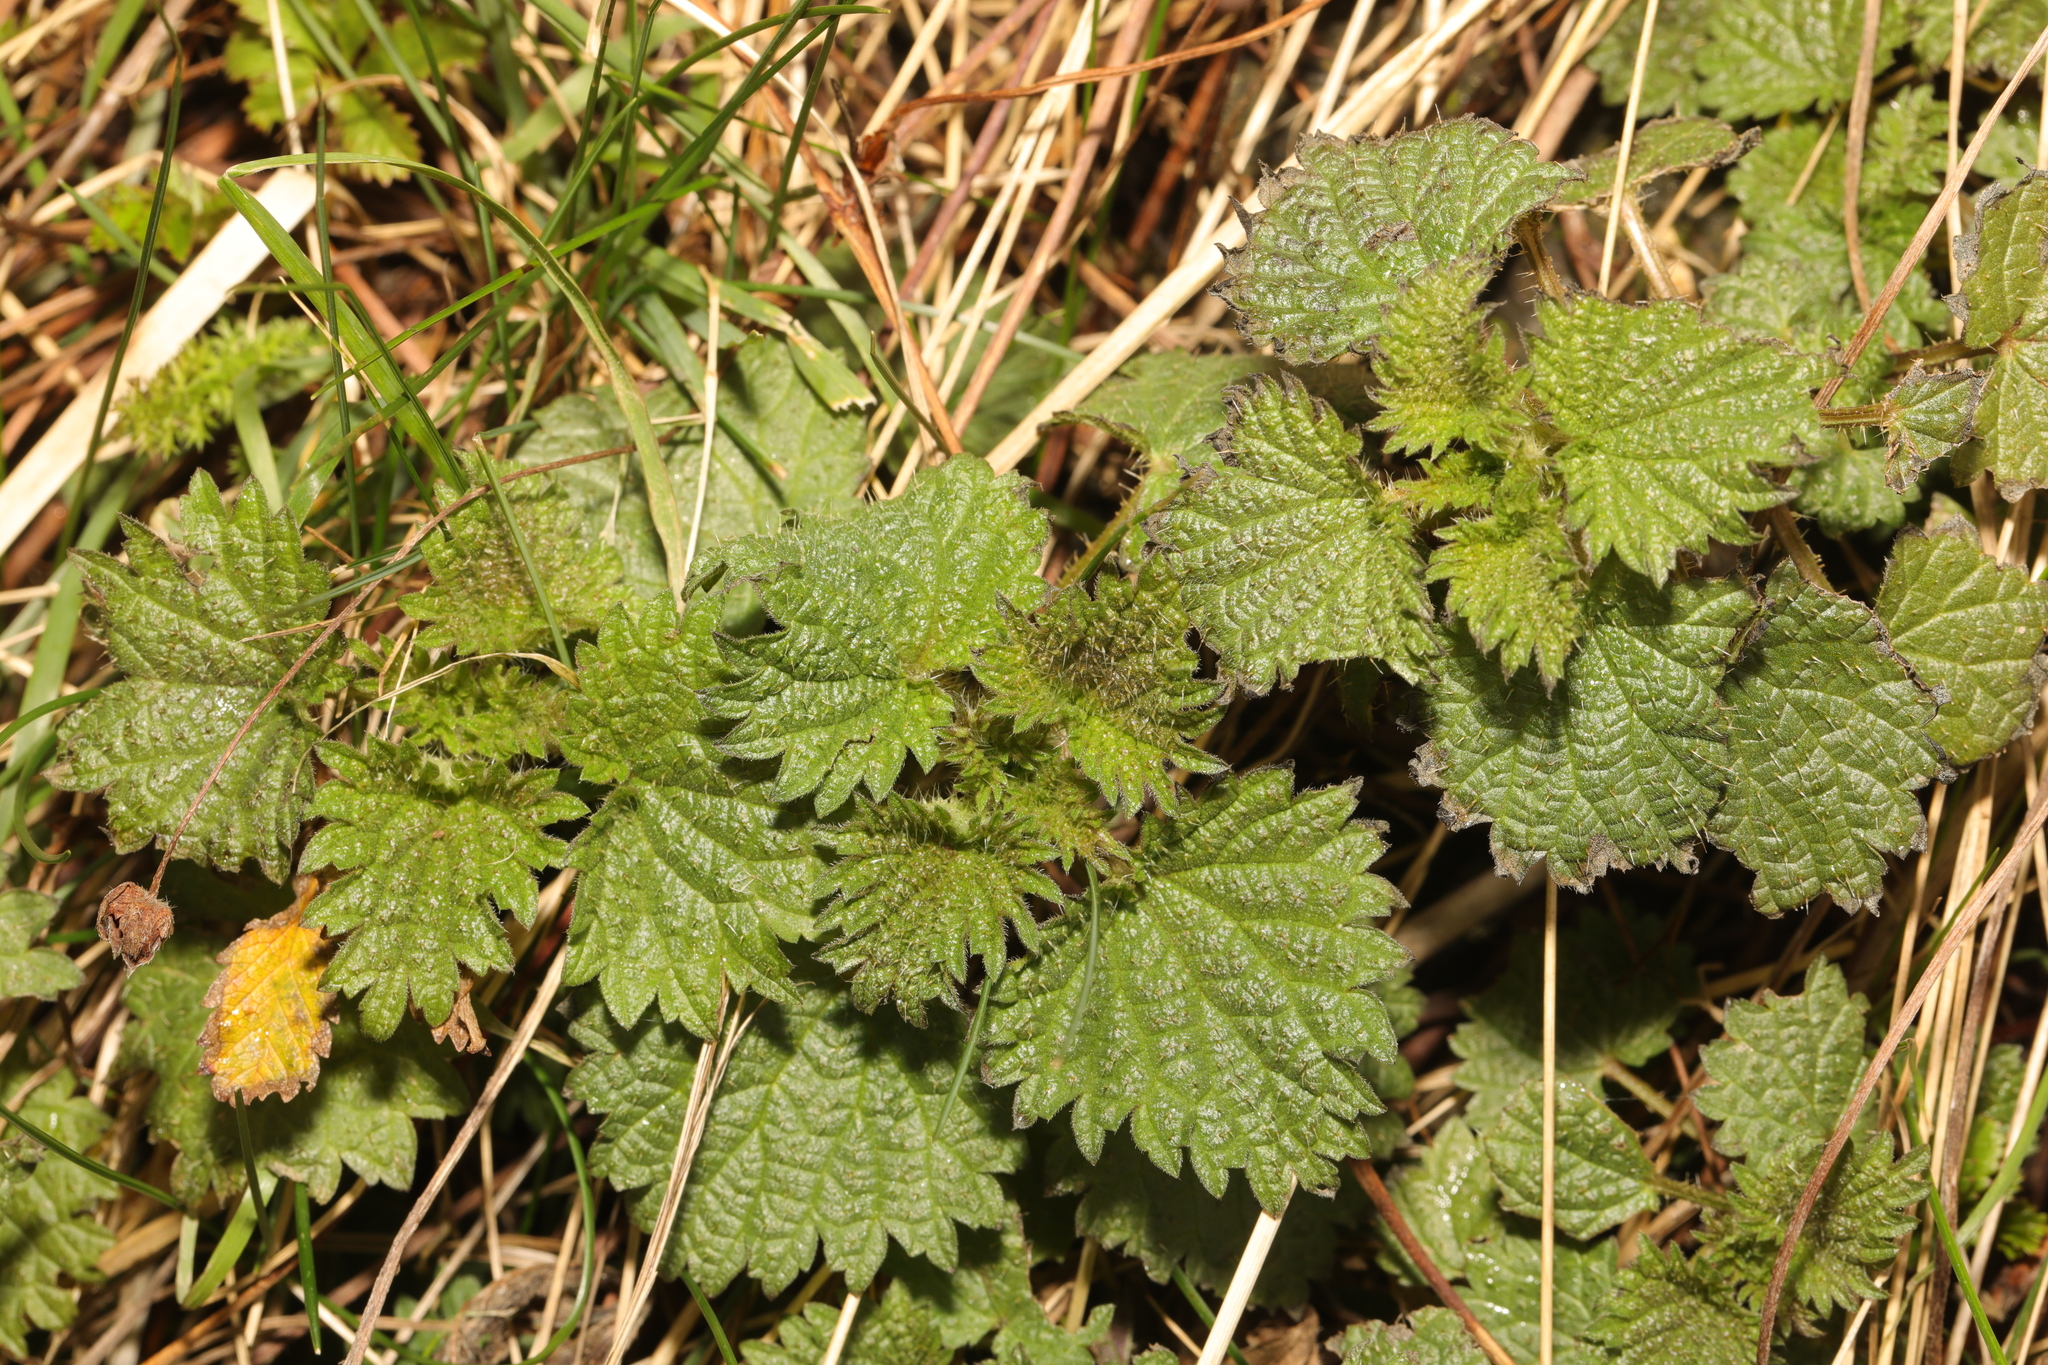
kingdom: Plantae
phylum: Tracheophyta
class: Magnoliopsida
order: Rosales
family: Urticaceae
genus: Urtica
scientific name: Urtica dioica
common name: Common nettle
